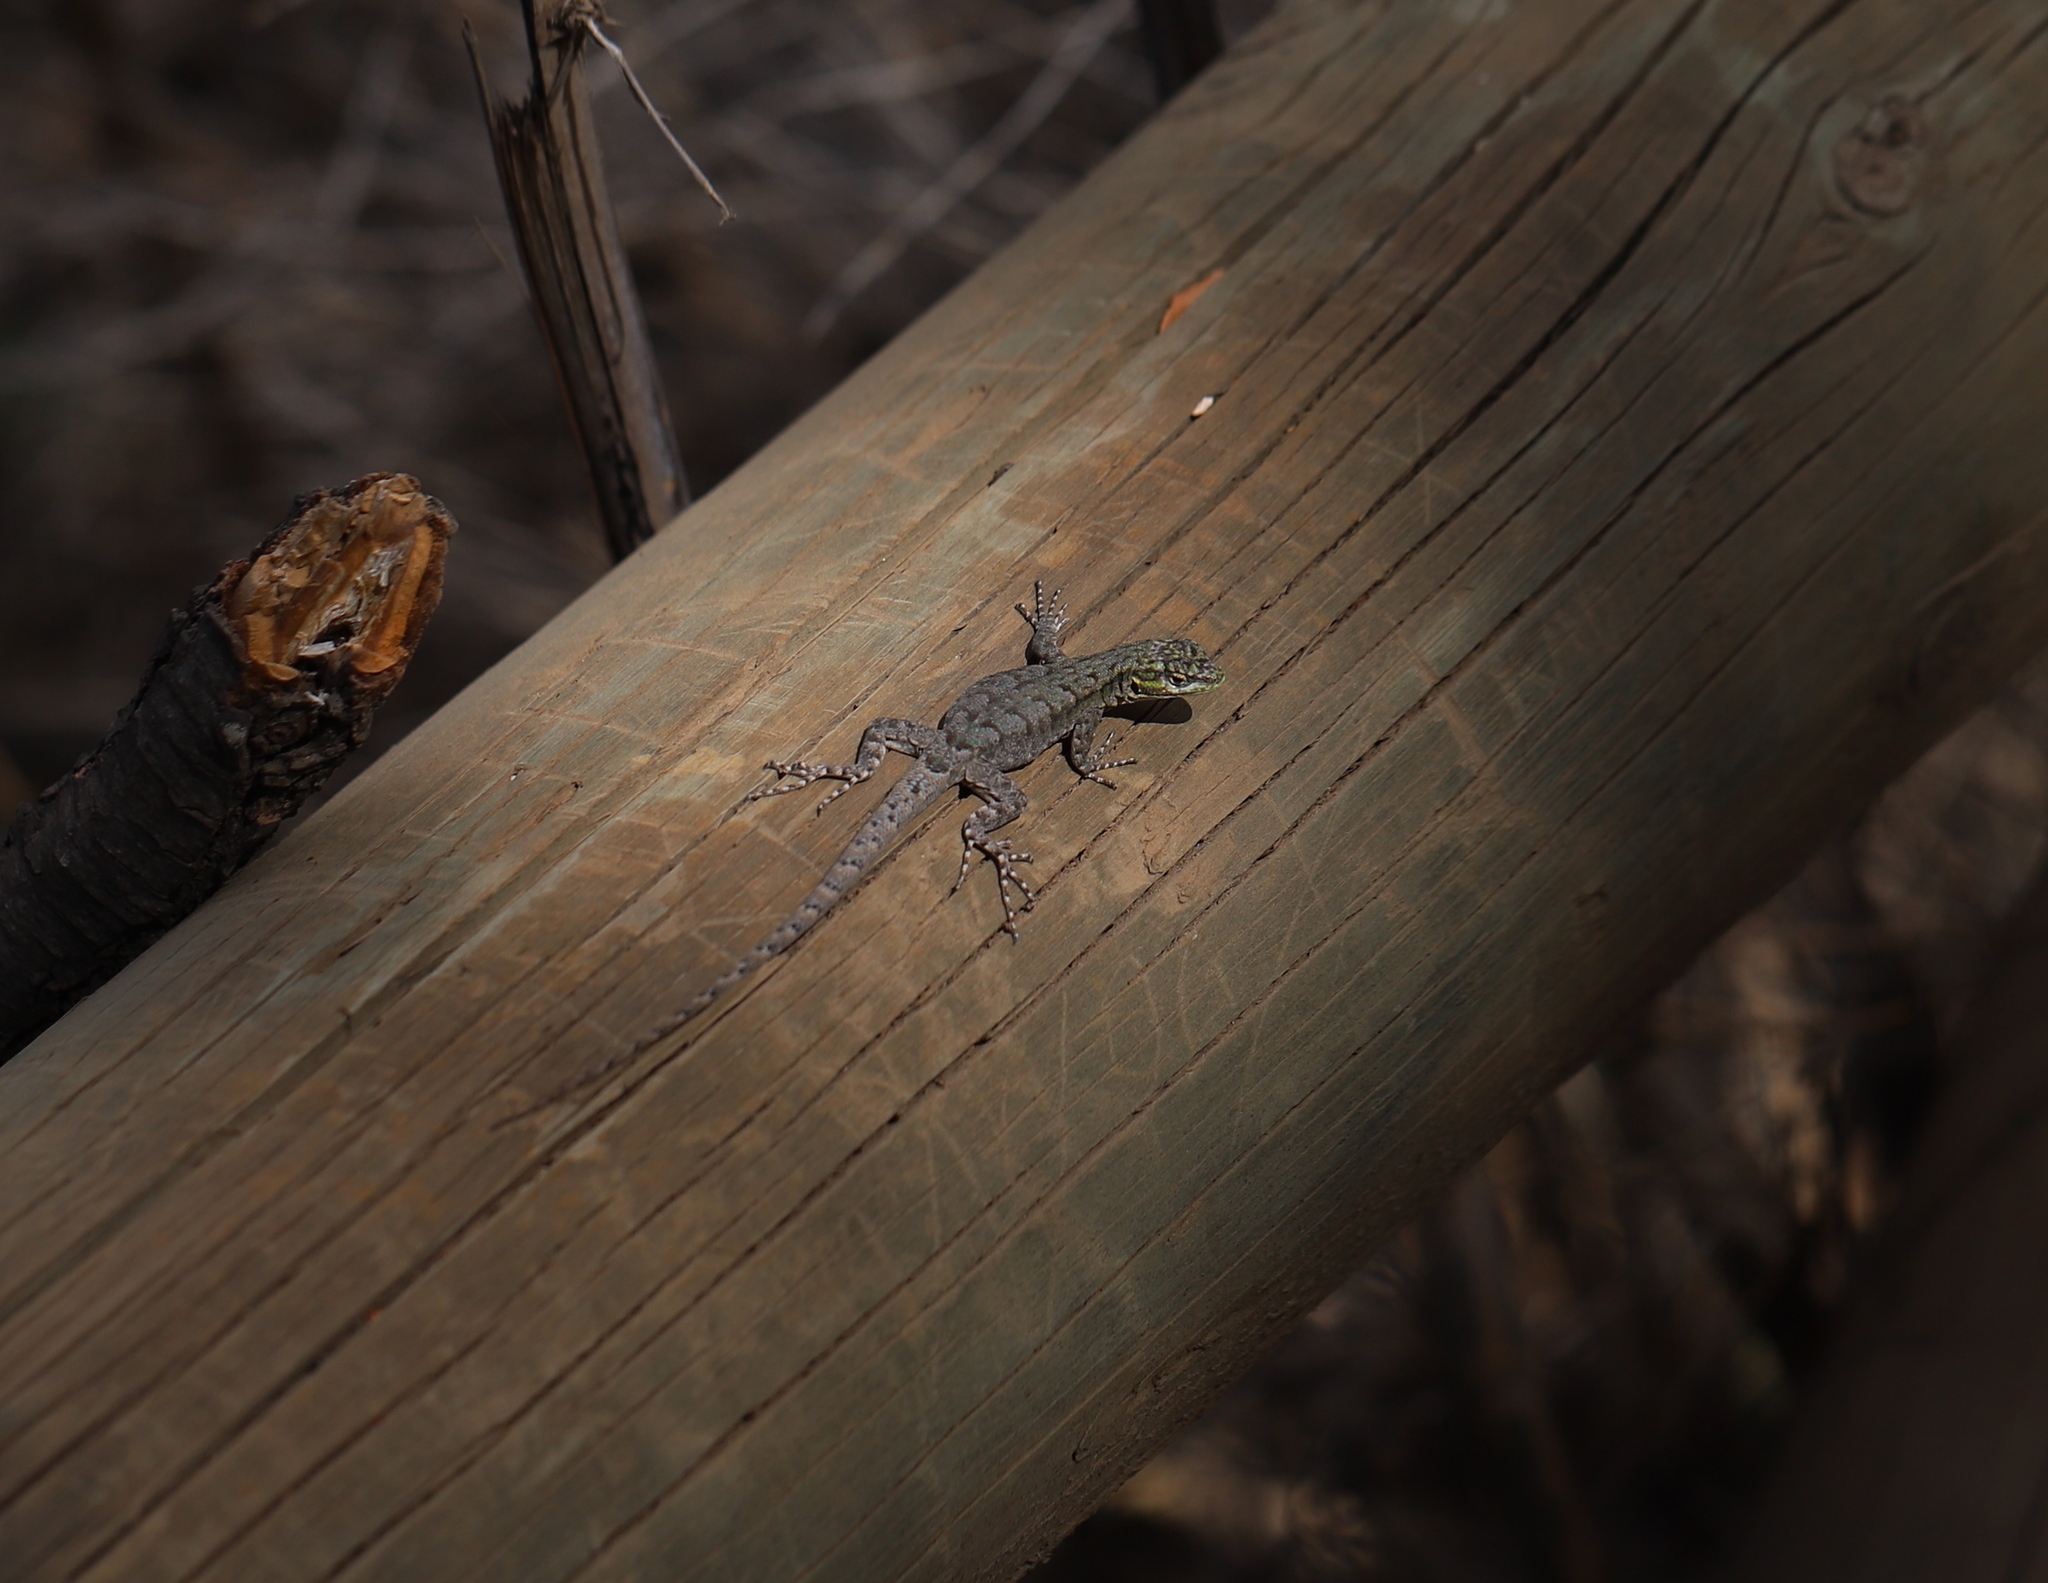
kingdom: Animalia
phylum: Chordata
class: Squamata
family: Liolaemidae
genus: Liolaemus
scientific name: Liolaemus tenuis
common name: Thin tree iguana
